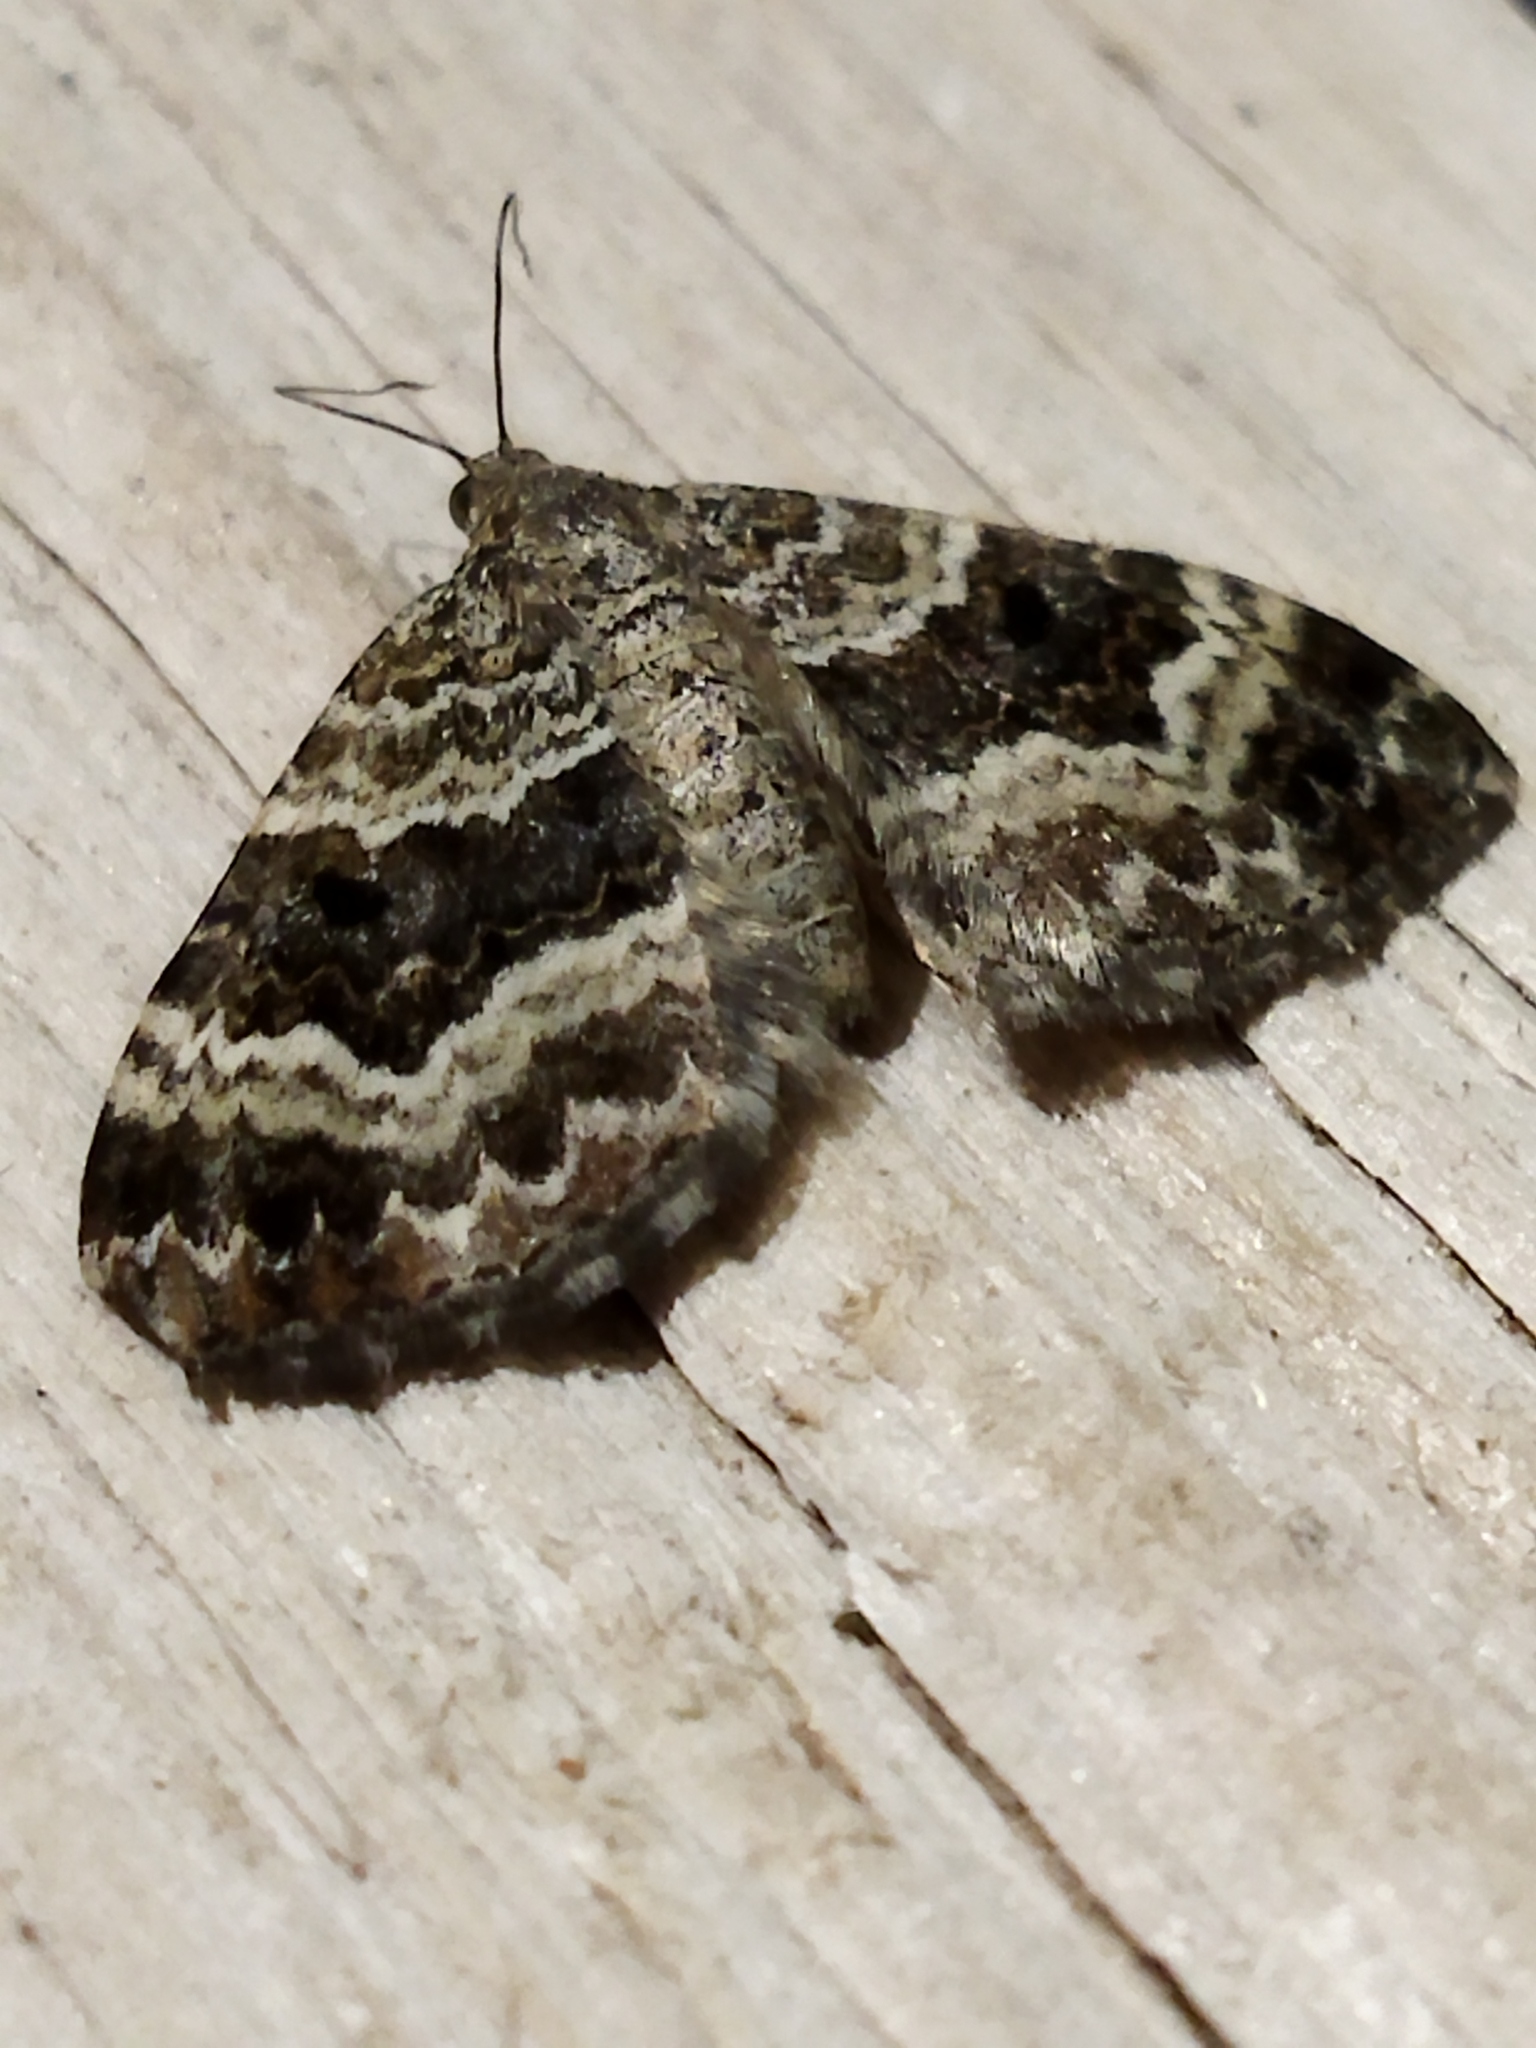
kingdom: Animalia
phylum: Arthropoda
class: Insecta
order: Lepidoptera
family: Geometridae
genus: Epirrhoe
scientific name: Epirrhoe alternata
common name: Common carpet
